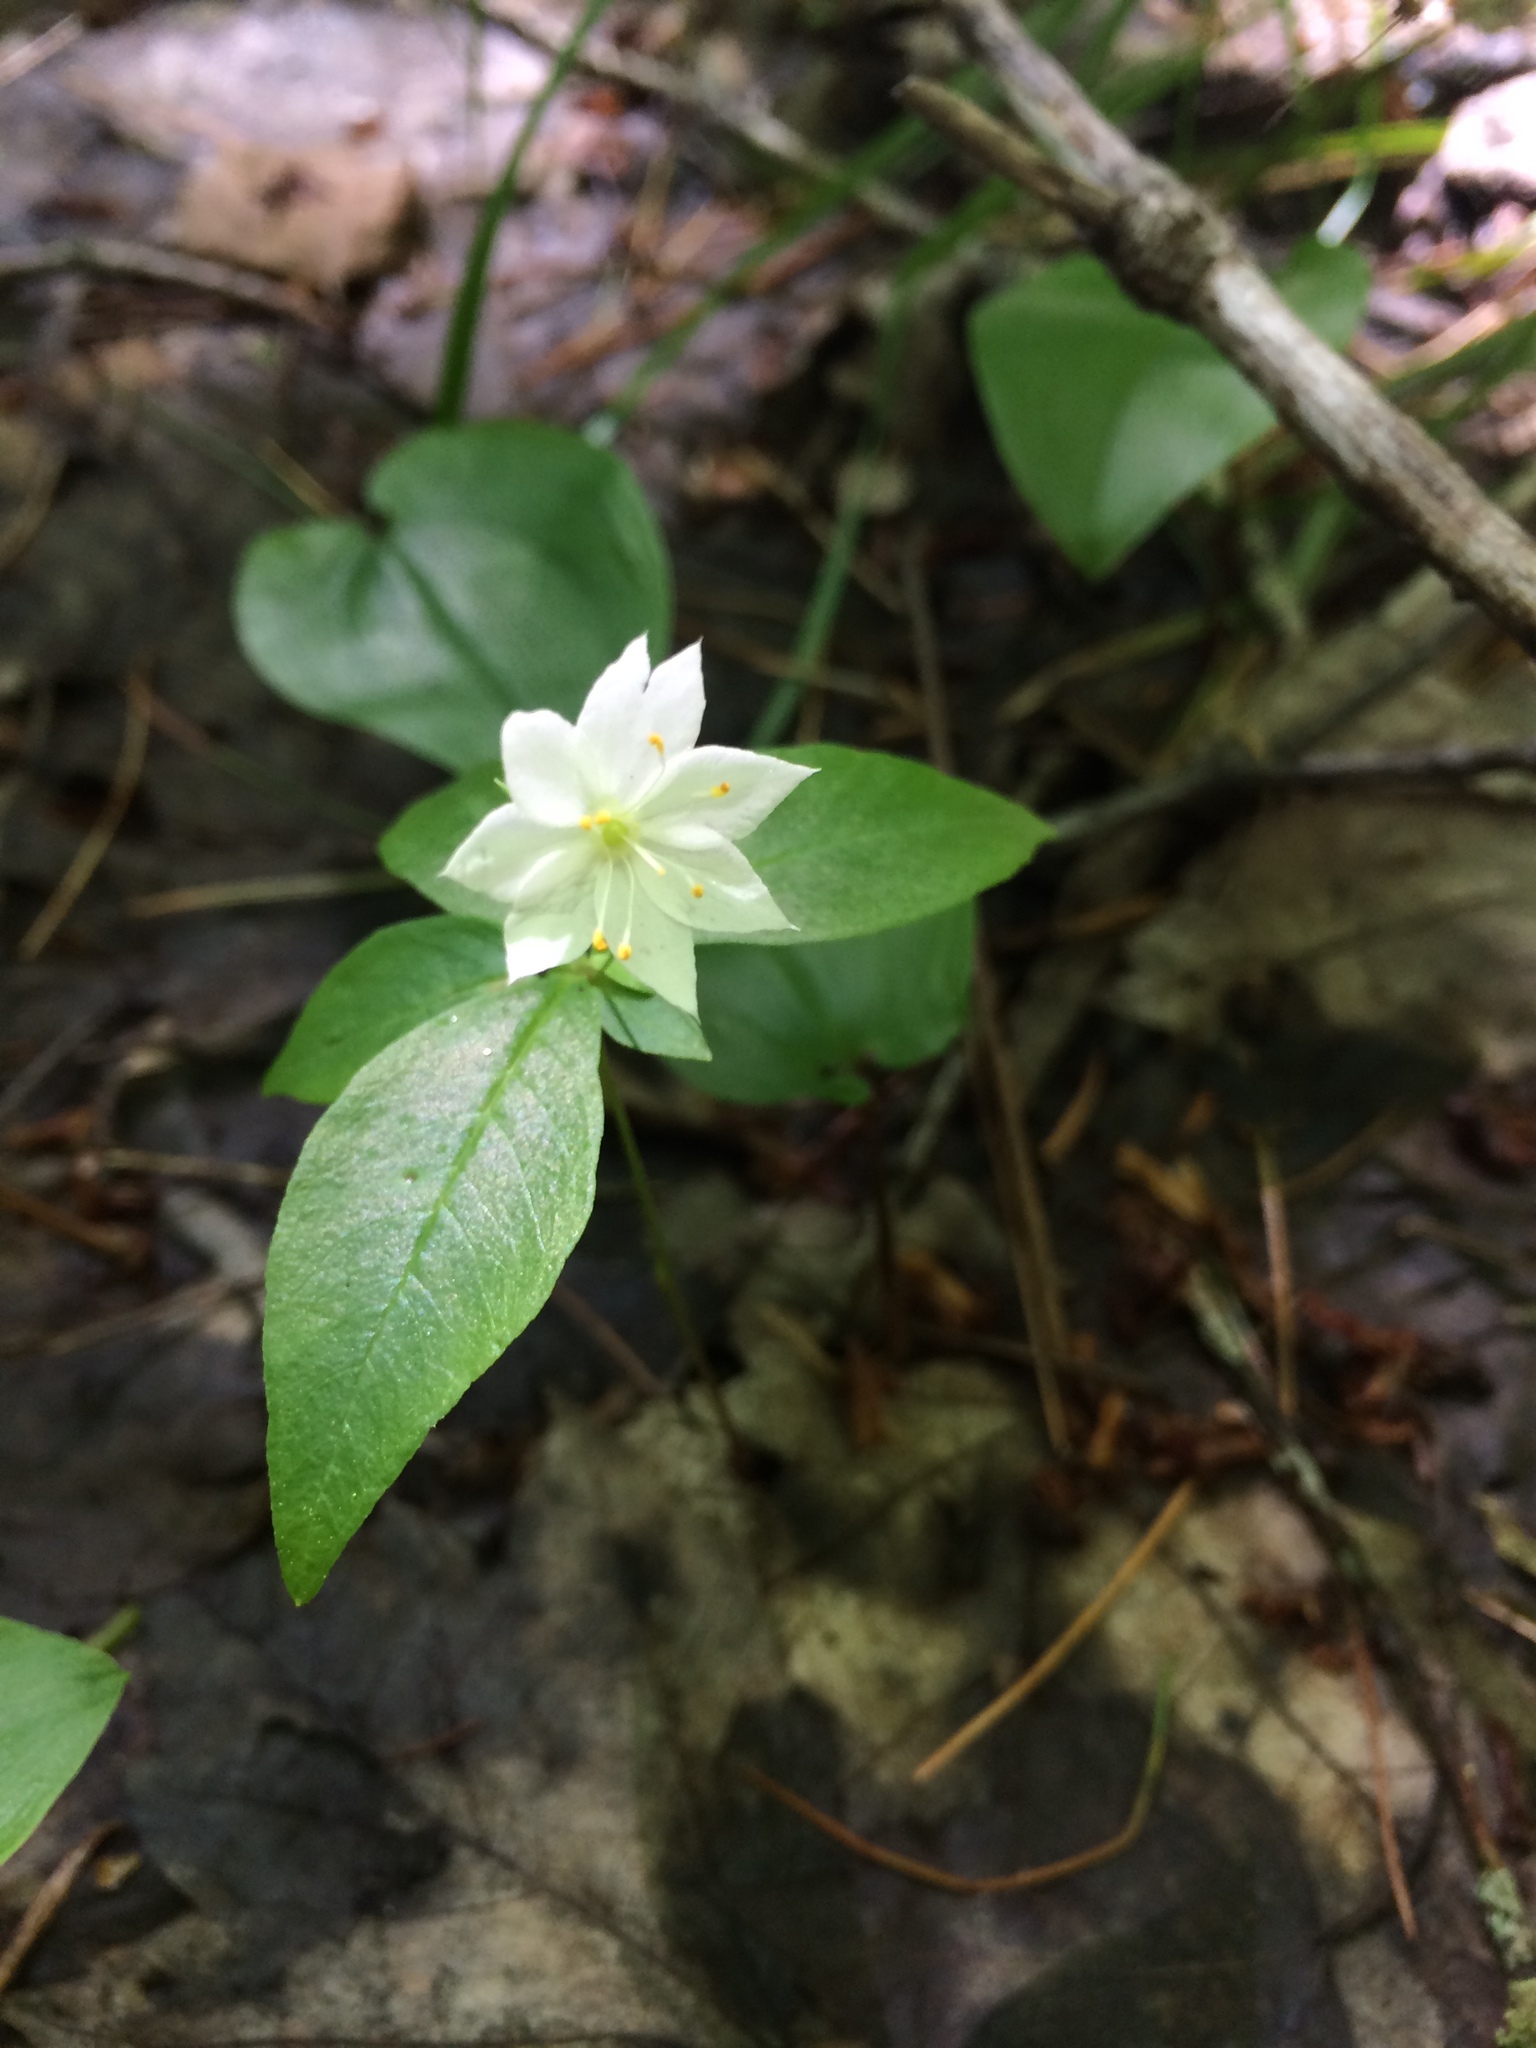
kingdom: Plantae
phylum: Tracheophyta
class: Magnoliopsida
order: Ericales
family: Primulaceae
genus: Lysimachia
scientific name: Lysimachia borealis
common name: American starflower
